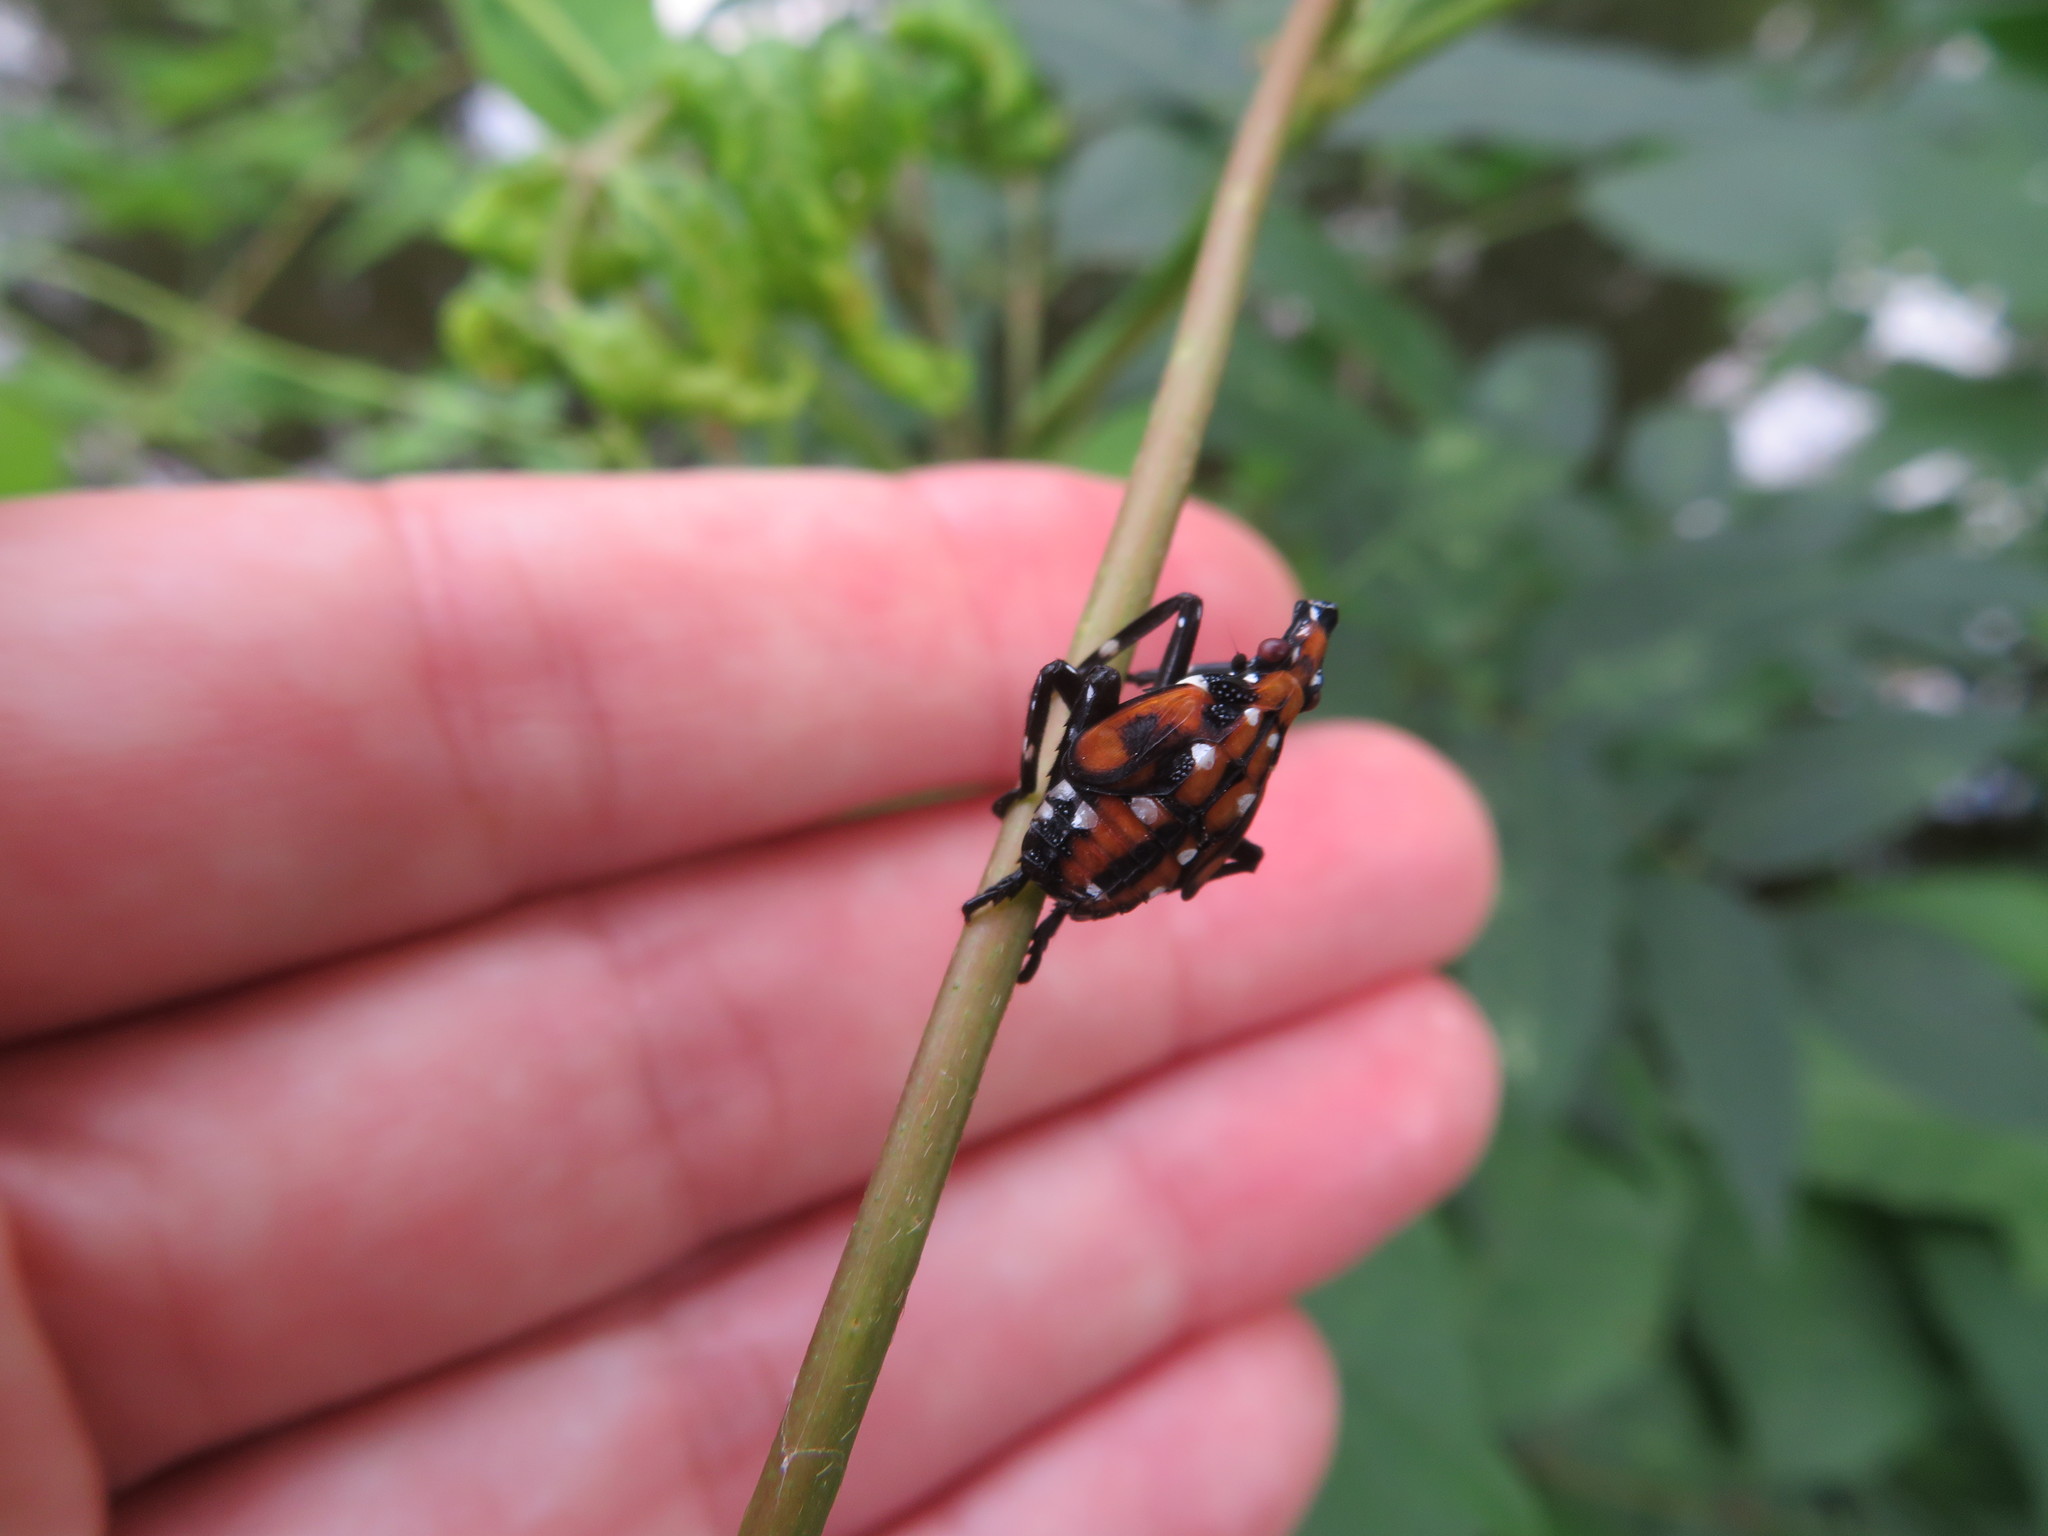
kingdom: Animalia
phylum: Arthropoda
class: Insecta
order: Hemiptera
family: Fulgoridae
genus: Lycorma
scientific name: Lycorma delicatula
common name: Spotted lanternfly
